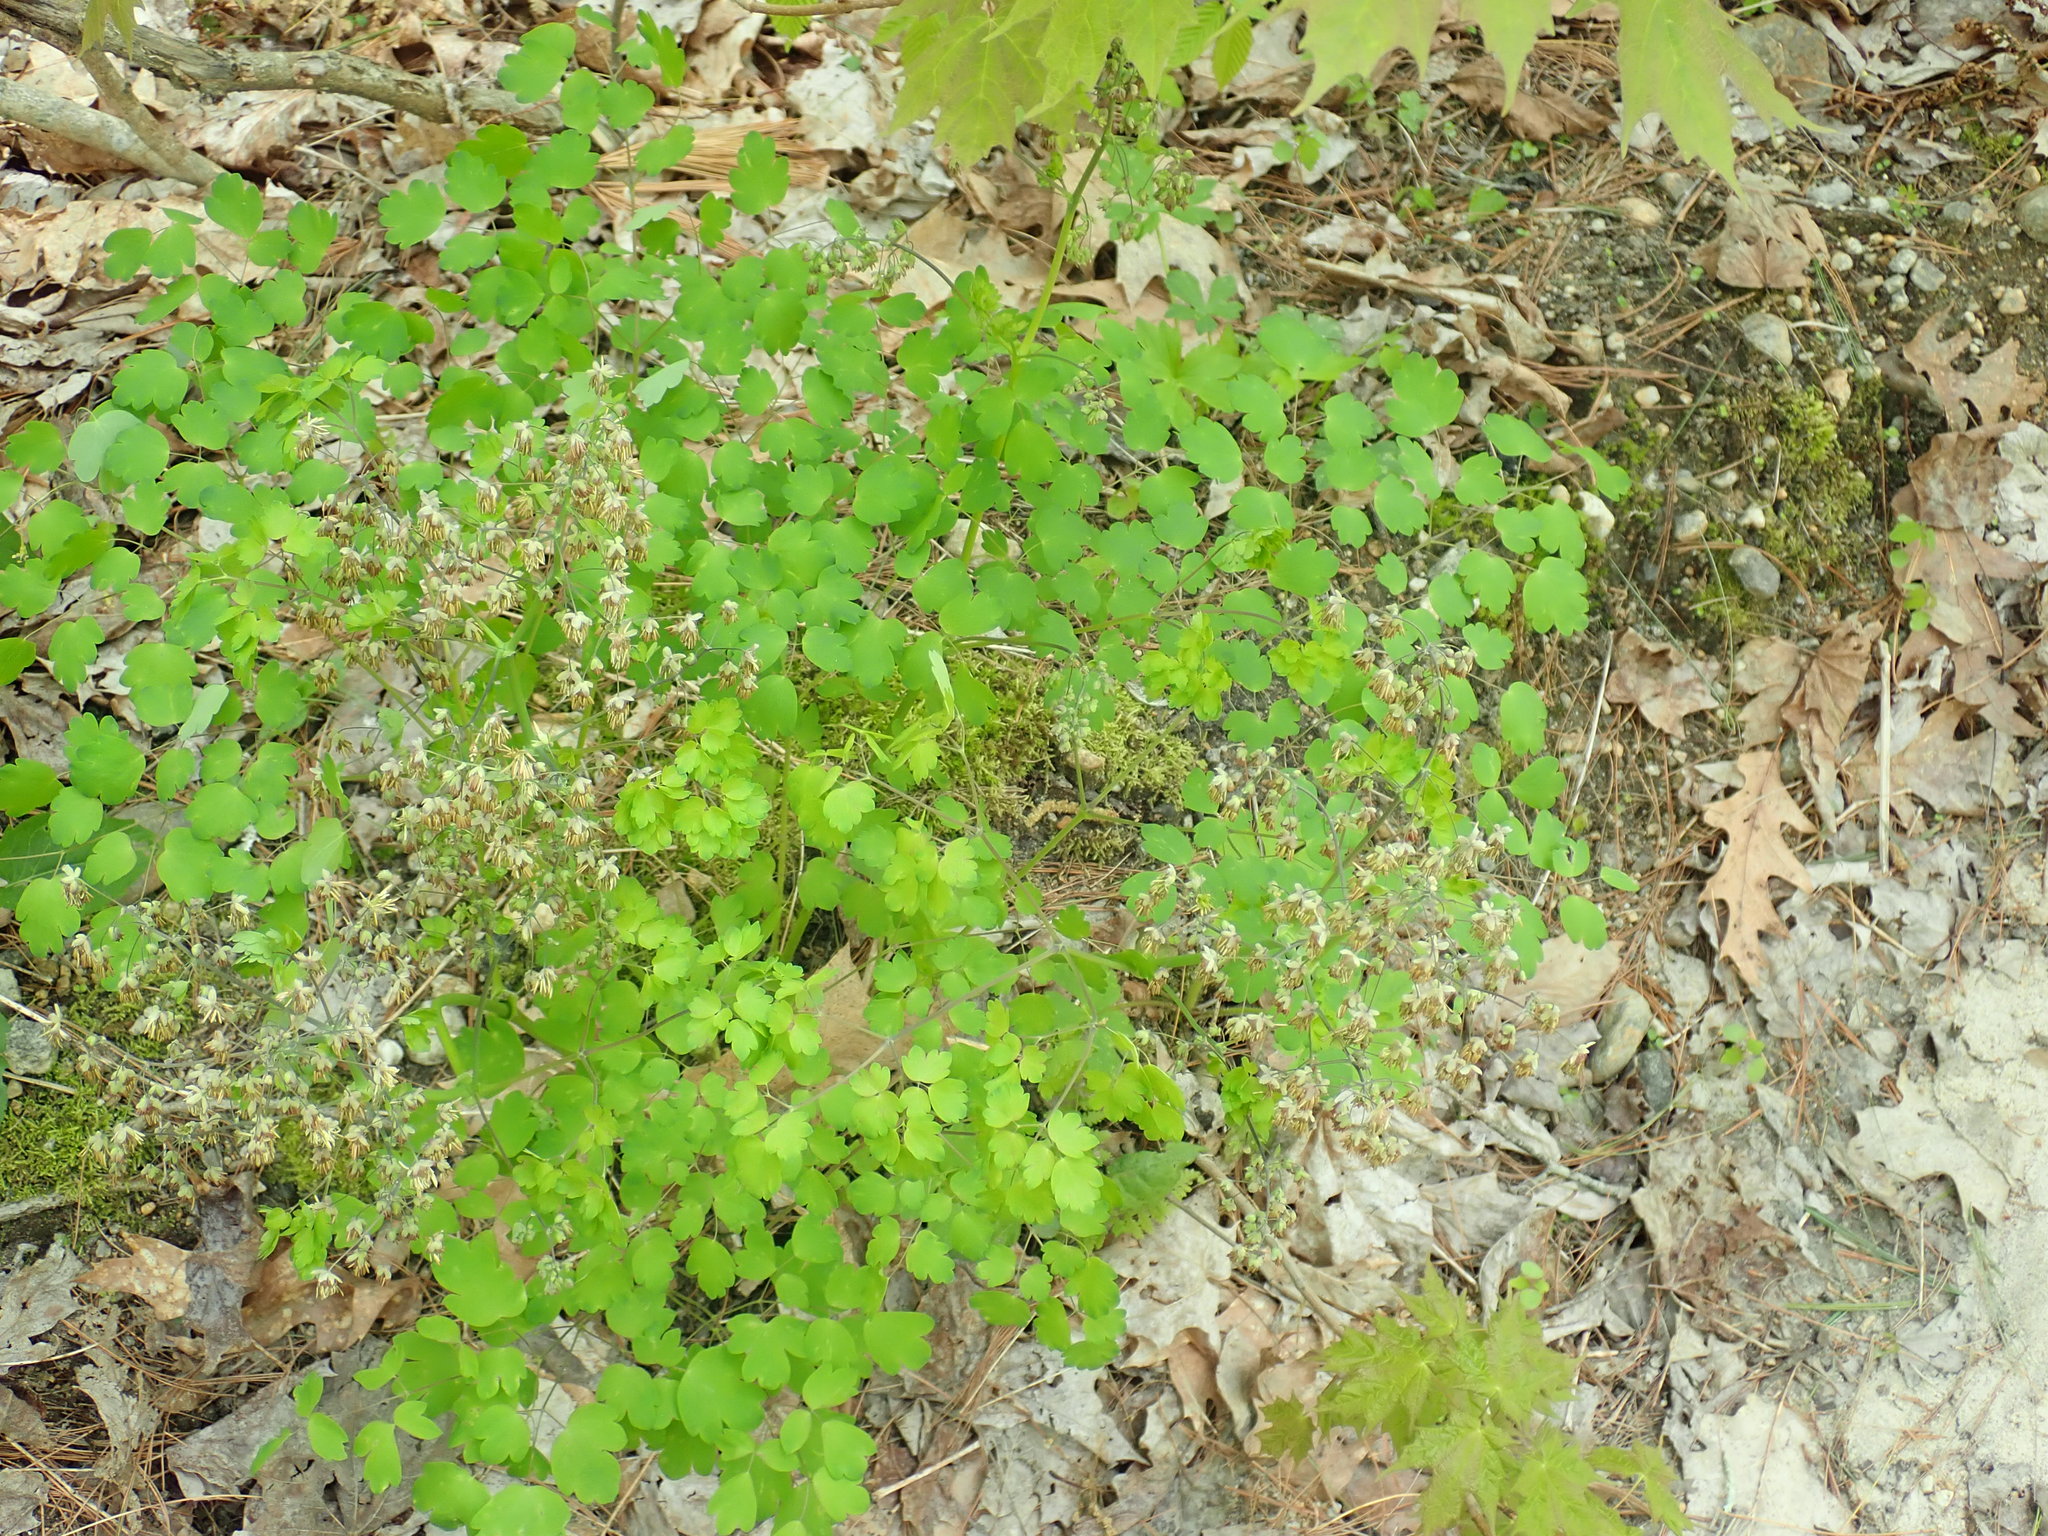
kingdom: Plantae
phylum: Tracheophyta
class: Magnoliopsida
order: Ranunculales
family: Ranunculaceae
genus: Thalictrum
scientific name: Thalictrum dioicum
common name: Early meadow-rue
